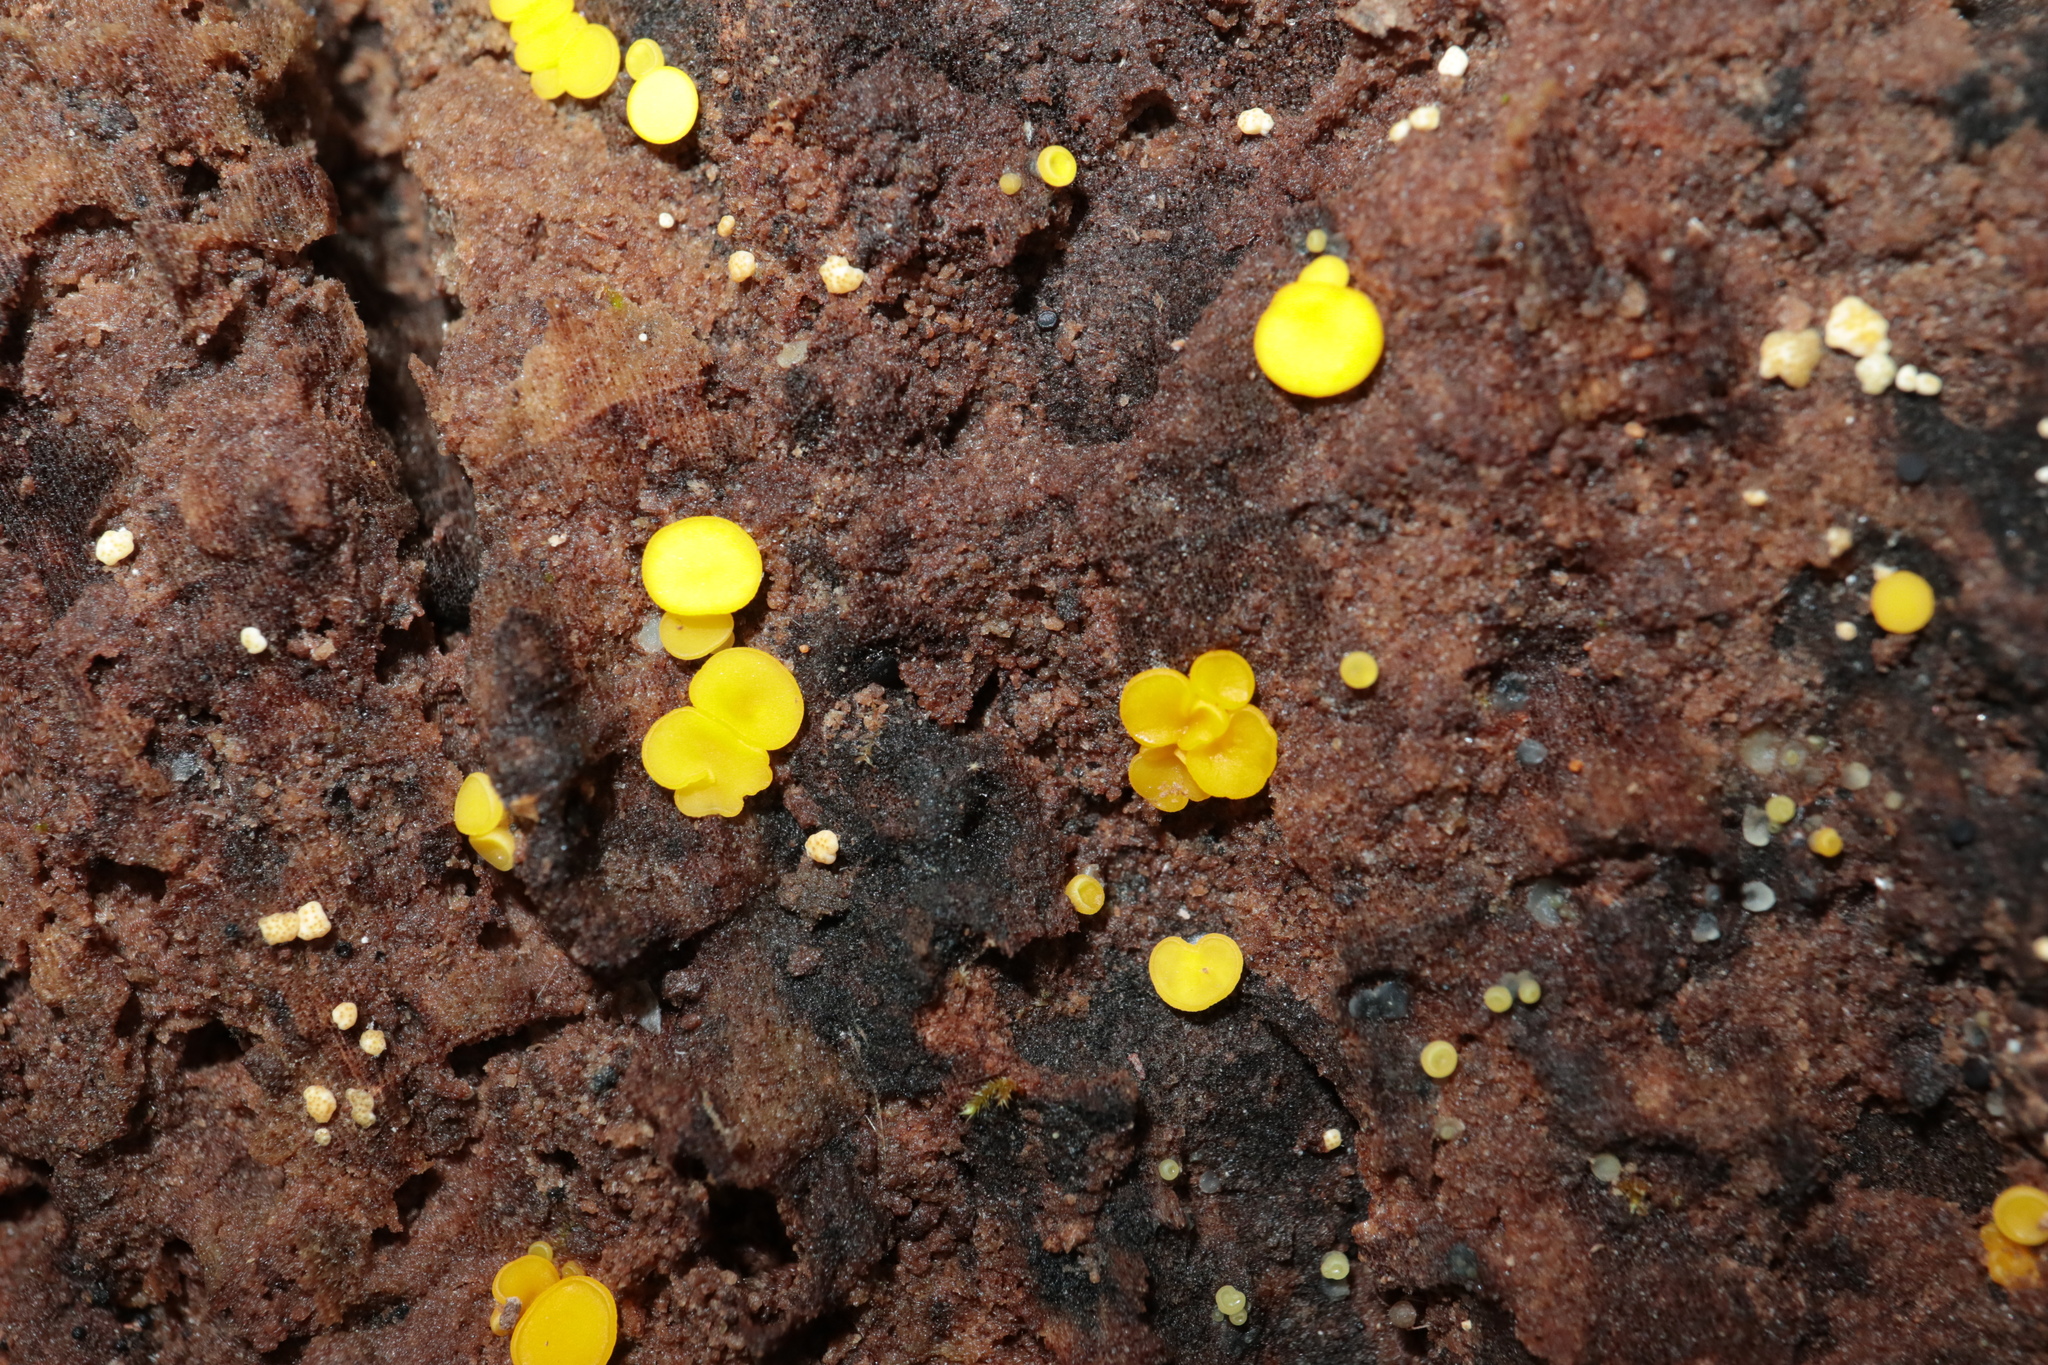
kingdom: Fungi
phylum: Ascomycota
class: Leotiomycetes
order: Helotiales
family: Pezizellaceae
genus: Calycina
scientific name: Calycina citrina
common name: Yellow fairy cups
